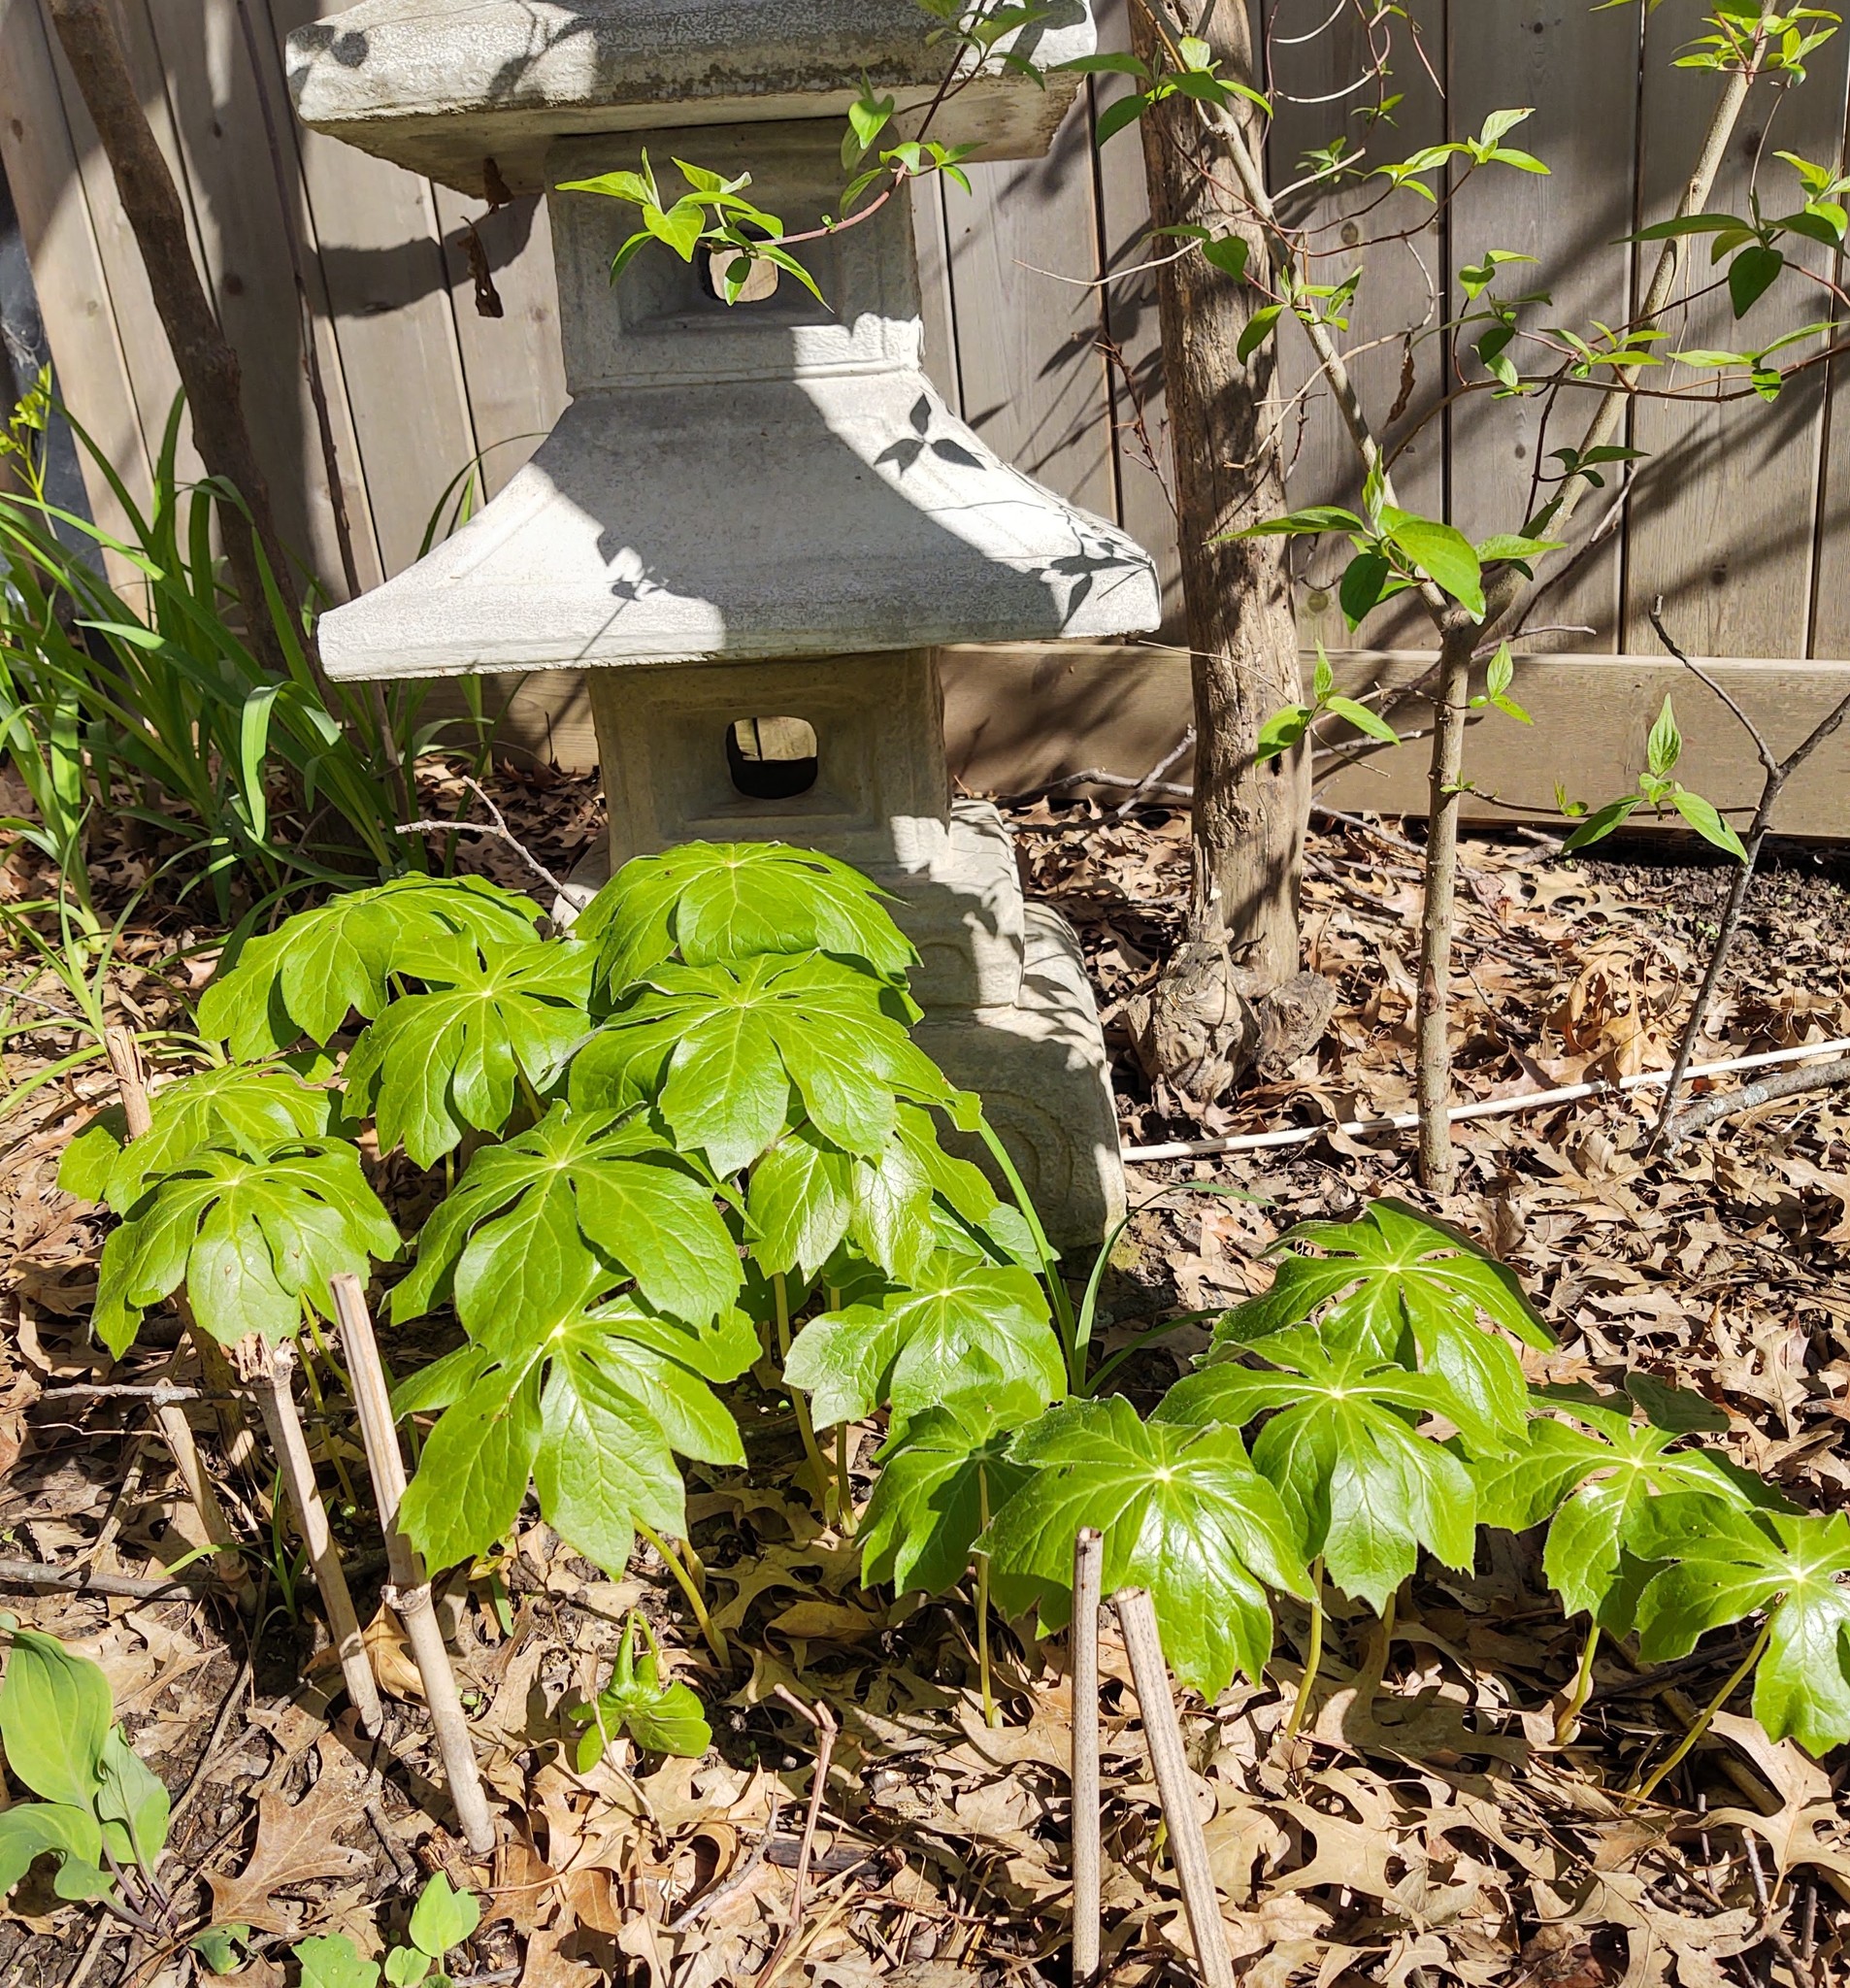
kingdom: Plantae
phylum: Tracheophyta
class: Magnoliopsida
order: Ranunculales
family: Berberidaceae
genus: Podophyllum
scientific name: Podophyllum peltatum
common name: Wild mandrake
